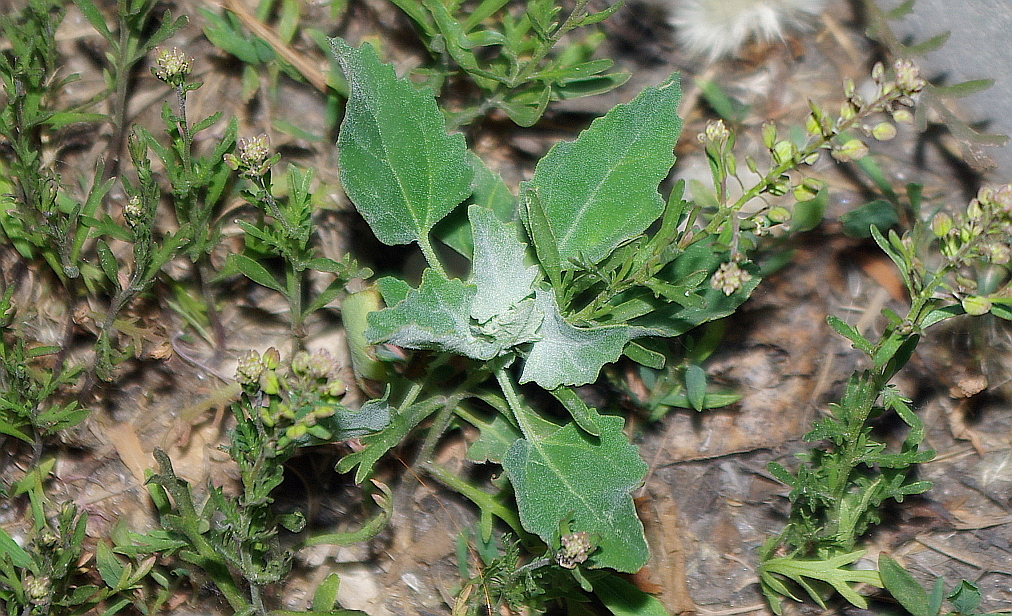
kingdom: Plantae
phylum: Tracheophyta
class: Magnoliopsida
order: Caryophyllales
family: Amaranthaceae
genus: Chenopodium
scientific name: Chenopodium album
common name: Fat-hen
